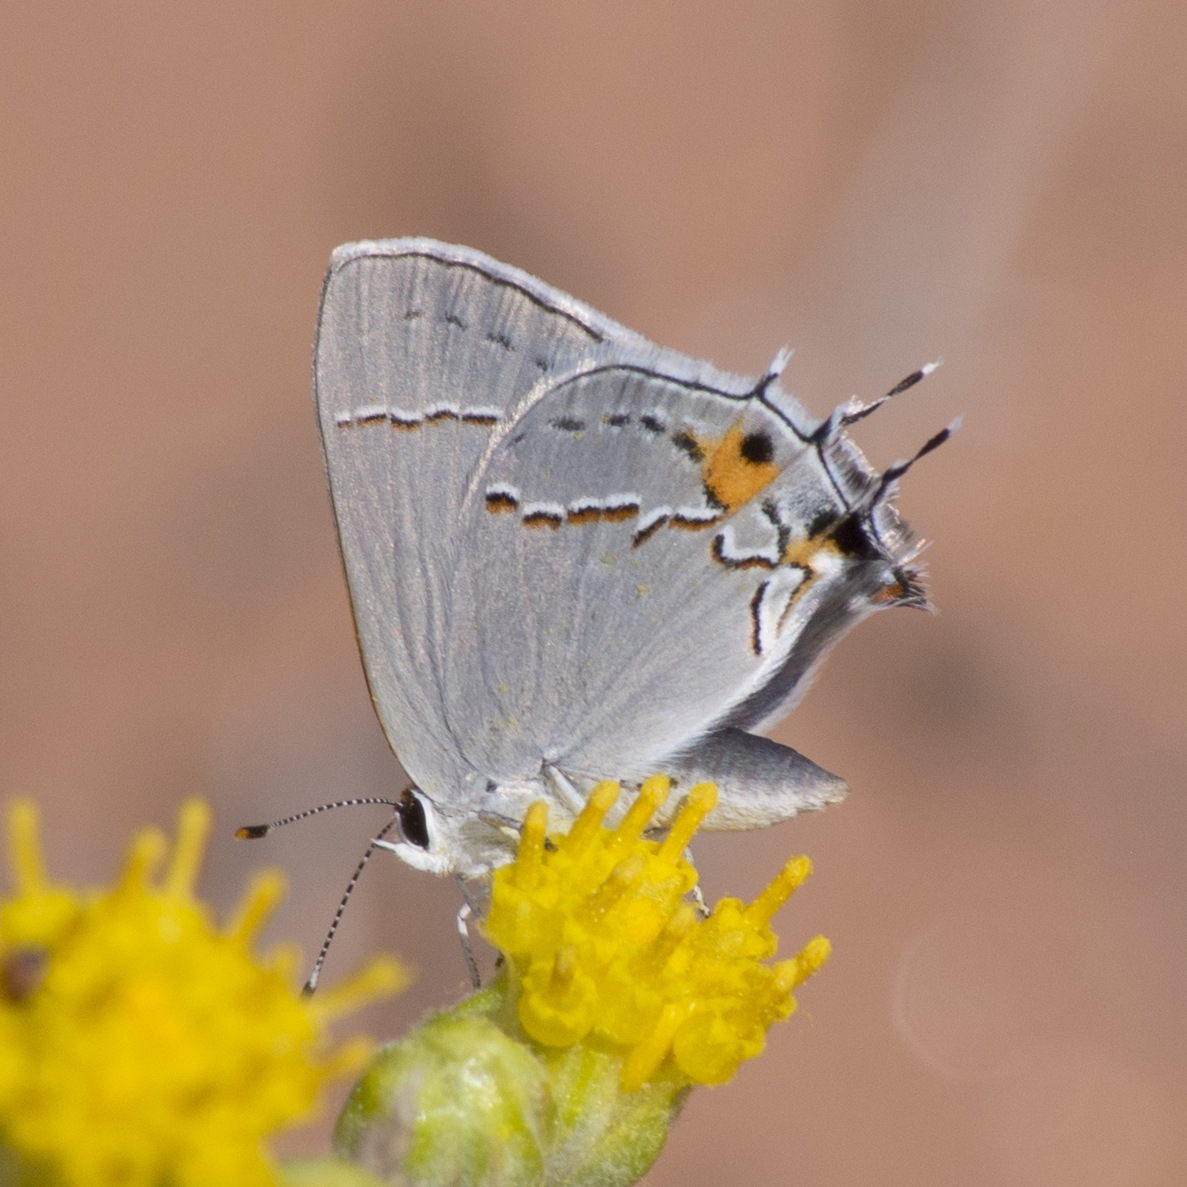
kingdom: Animalia
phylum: Arthropoda
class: Insecta
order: Lepidoptera
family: Lycaenidae
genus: Strymon
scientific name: Strymon melinus
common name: Gray hairstreak
